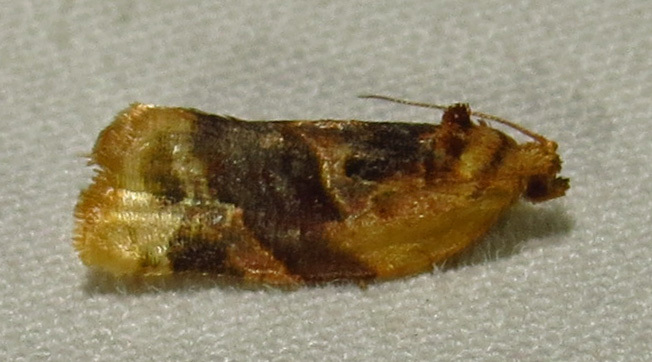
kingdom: Animalia
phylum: Arthropoda
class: Insecta
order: Lepidoptera
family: Tortricidae
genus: Argyrotaenia
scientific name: Argyrotaenia velutinana
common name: Red-banded leafroller moth
